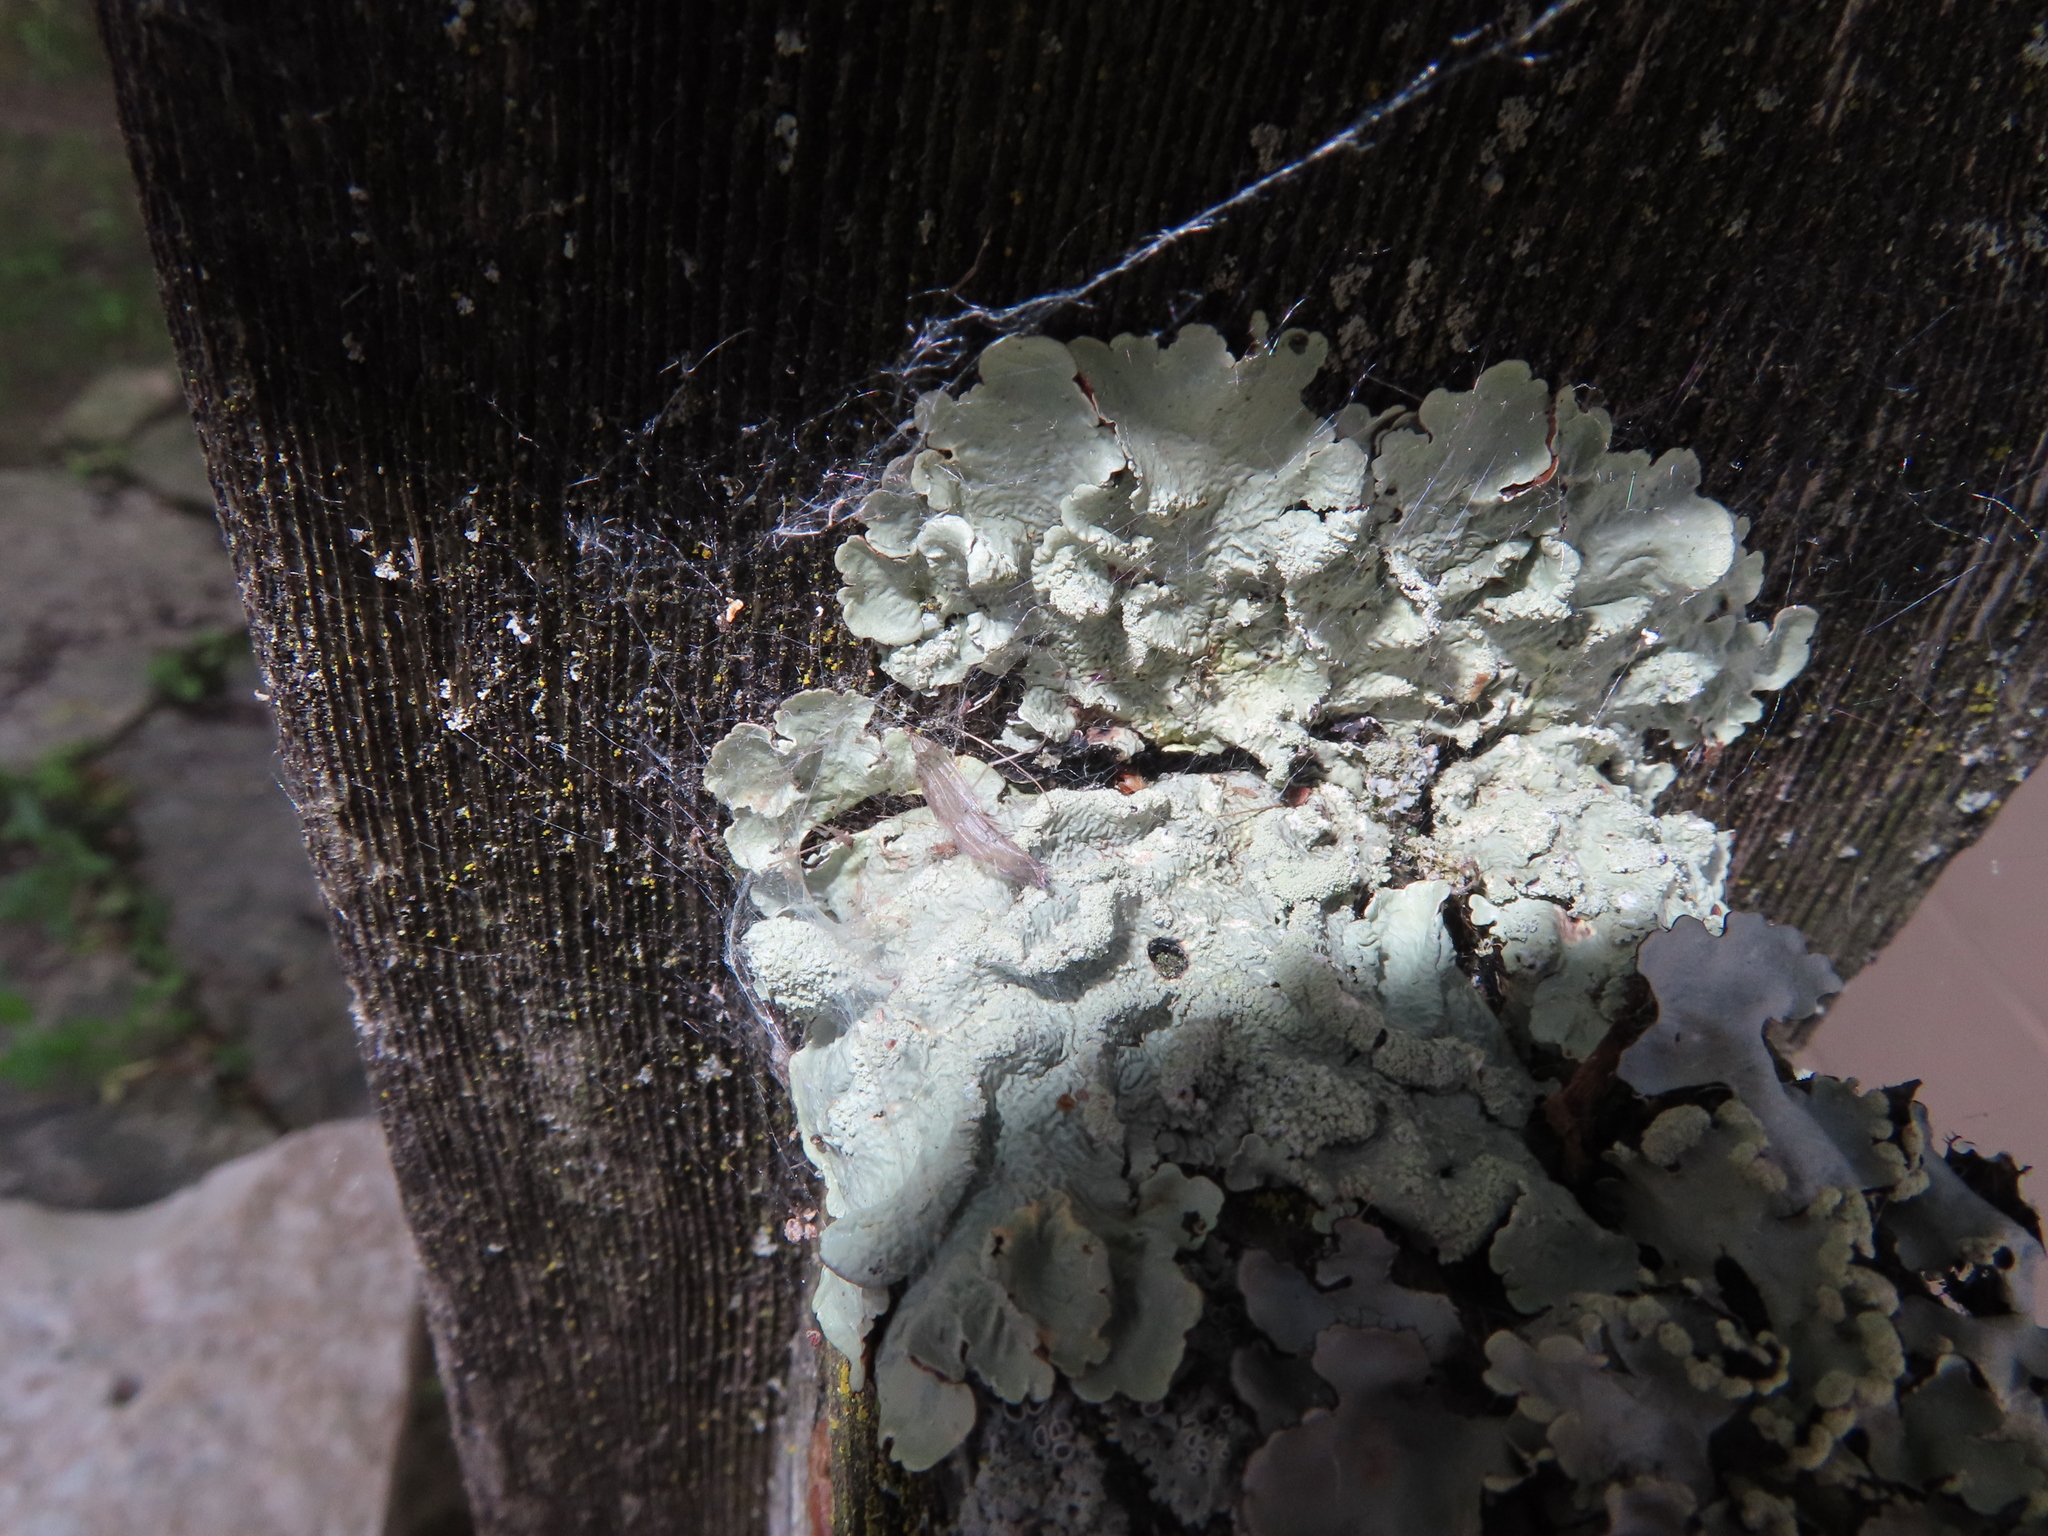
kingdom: Fungi
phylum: Ascomycota
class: Lecanoromycetes
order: Lecanorales
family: Parmeliaceae
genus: Flavoparmelia
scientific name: Flavoparmelia caperata
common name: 40-mile per hour lichen
